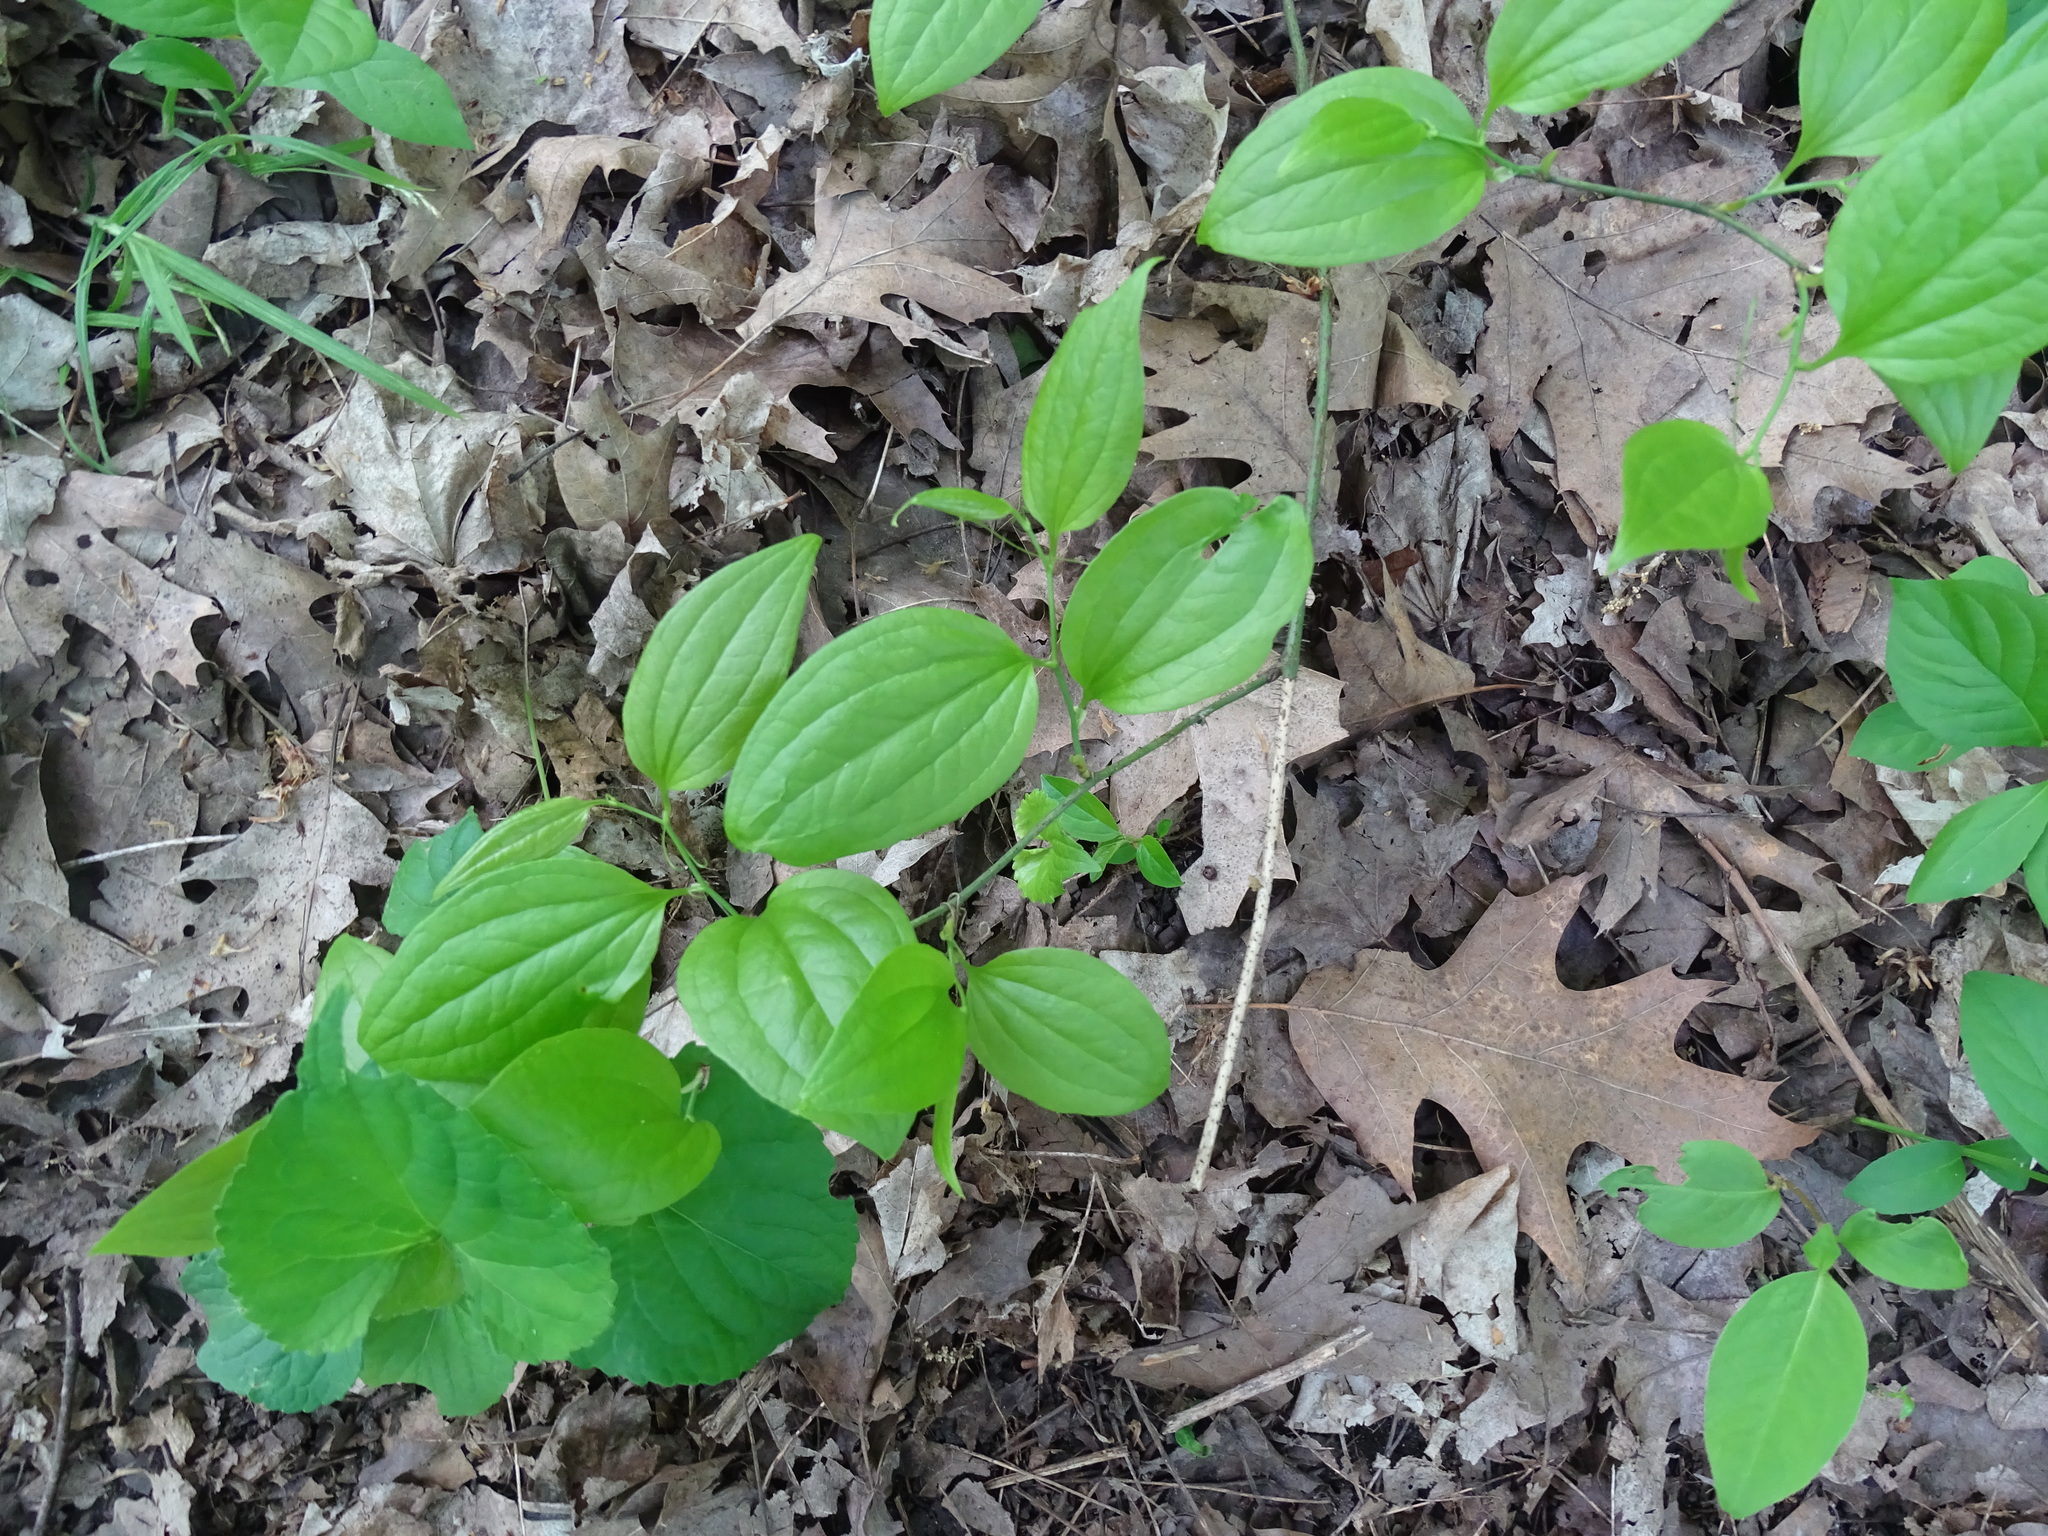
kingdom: Plantae
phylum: Tracheophyta
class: Liliopsida
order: Liliales
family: Smilacaceae
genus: Smilax
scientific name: Smilax tamnoides
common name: Hellfetter
